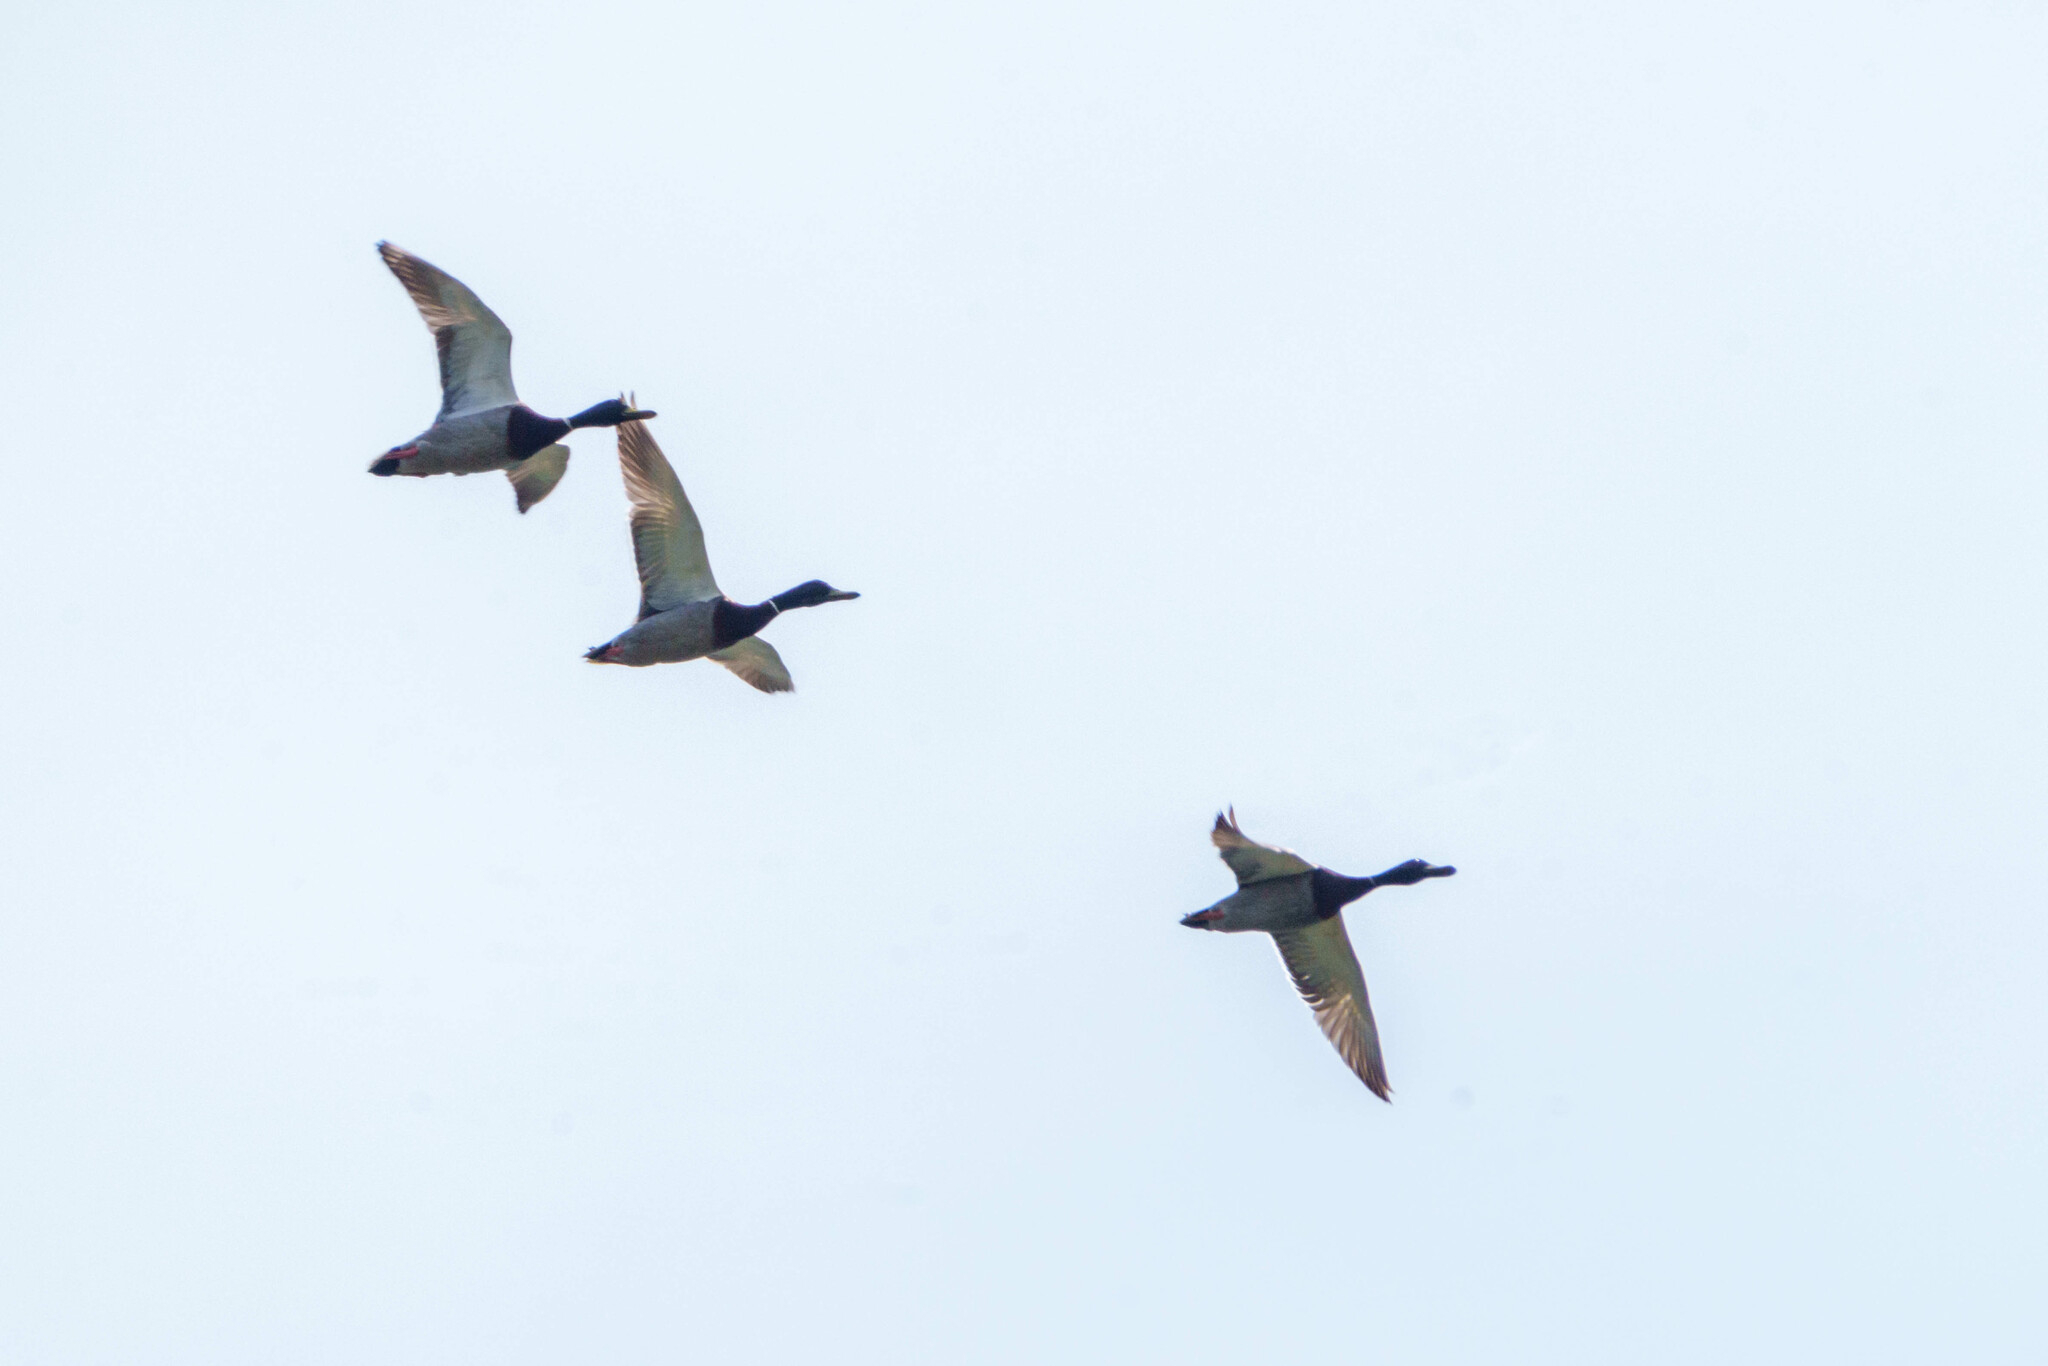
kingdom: Animalia
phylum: Chordata
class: Aves
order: Anseriformes
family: Anatidae
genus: Anas
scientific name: Anas platyrhynchos
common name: Mallard
